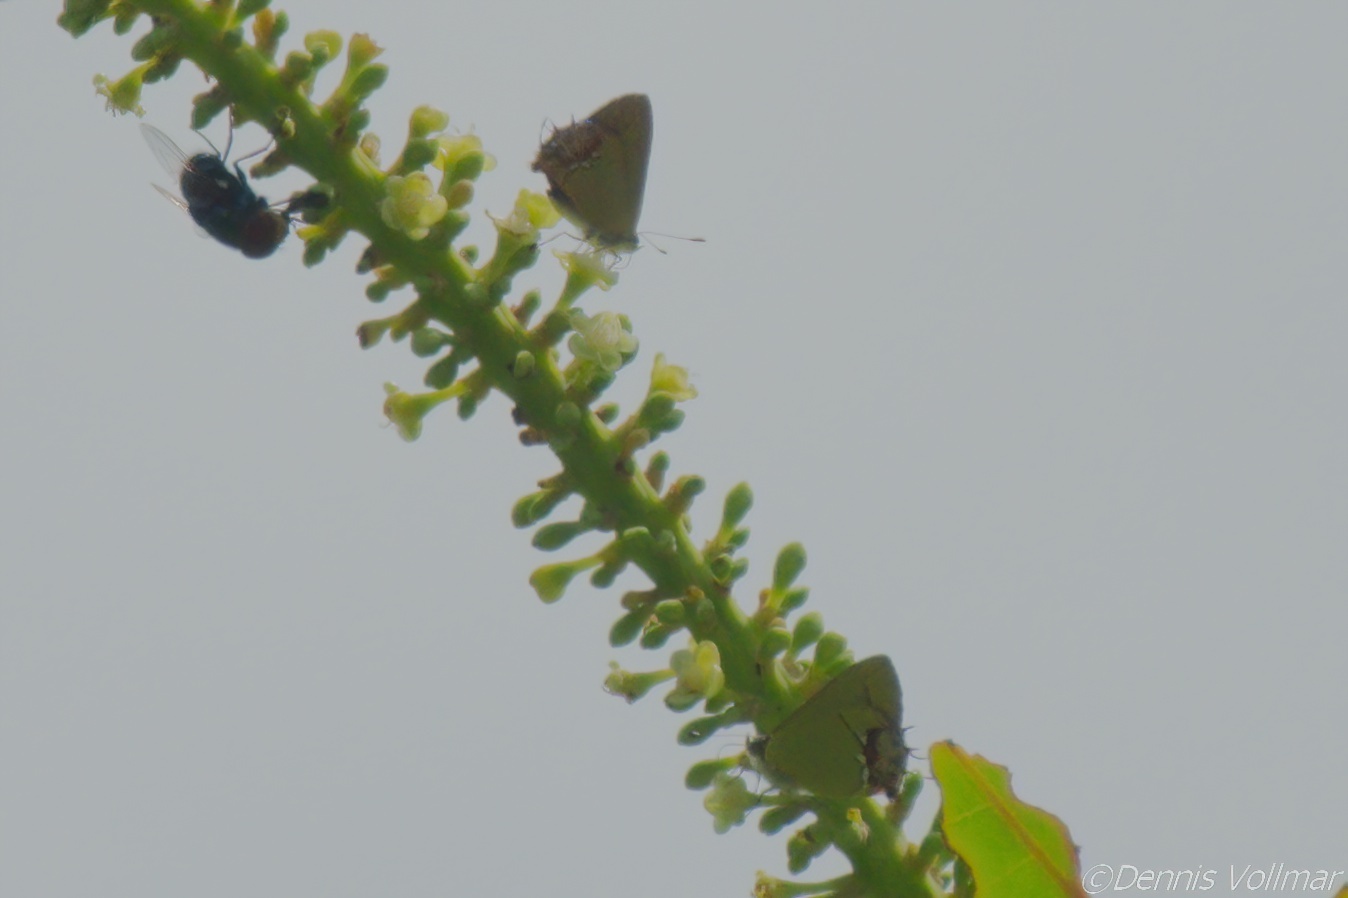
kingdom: Animalia
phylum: Arthropoda
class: Insecta
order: Lepidoptera
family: Lycaenidae
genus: Thecla
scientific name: Thecla maesites
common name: Verde azul hairstreak
